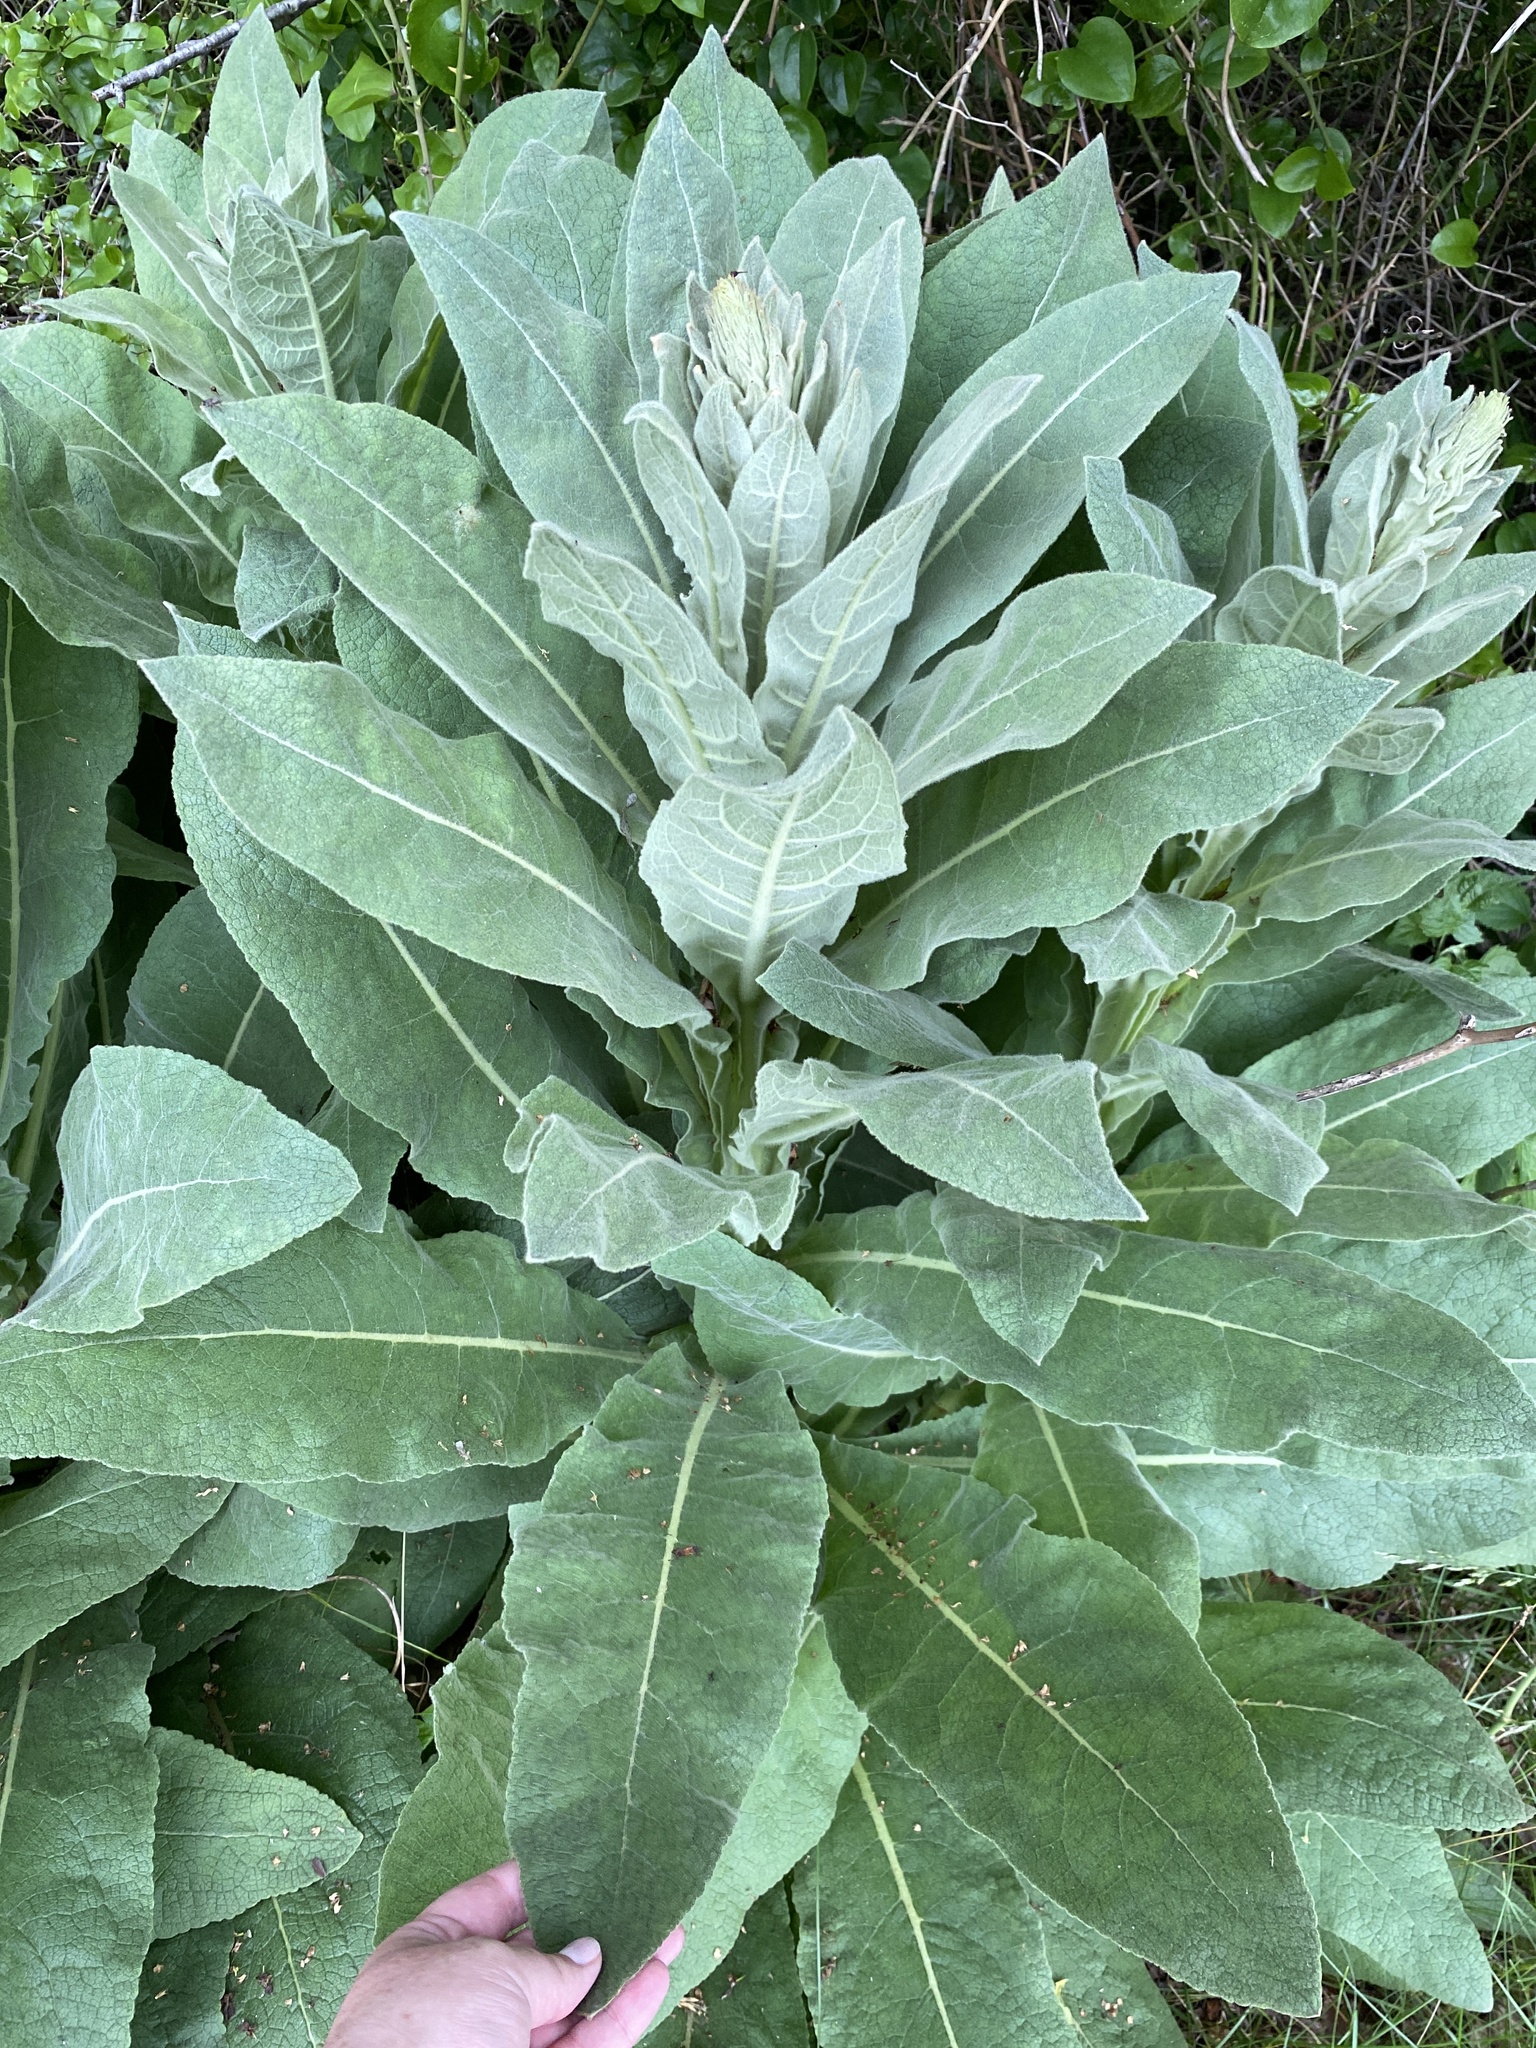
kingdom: Plantae
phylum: Tracheophyta
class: Magnoliopsida
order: Lamiales
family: Scrophulariaceae
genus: Verbascum
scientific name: Verbascum thapsus
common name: Common mullein
